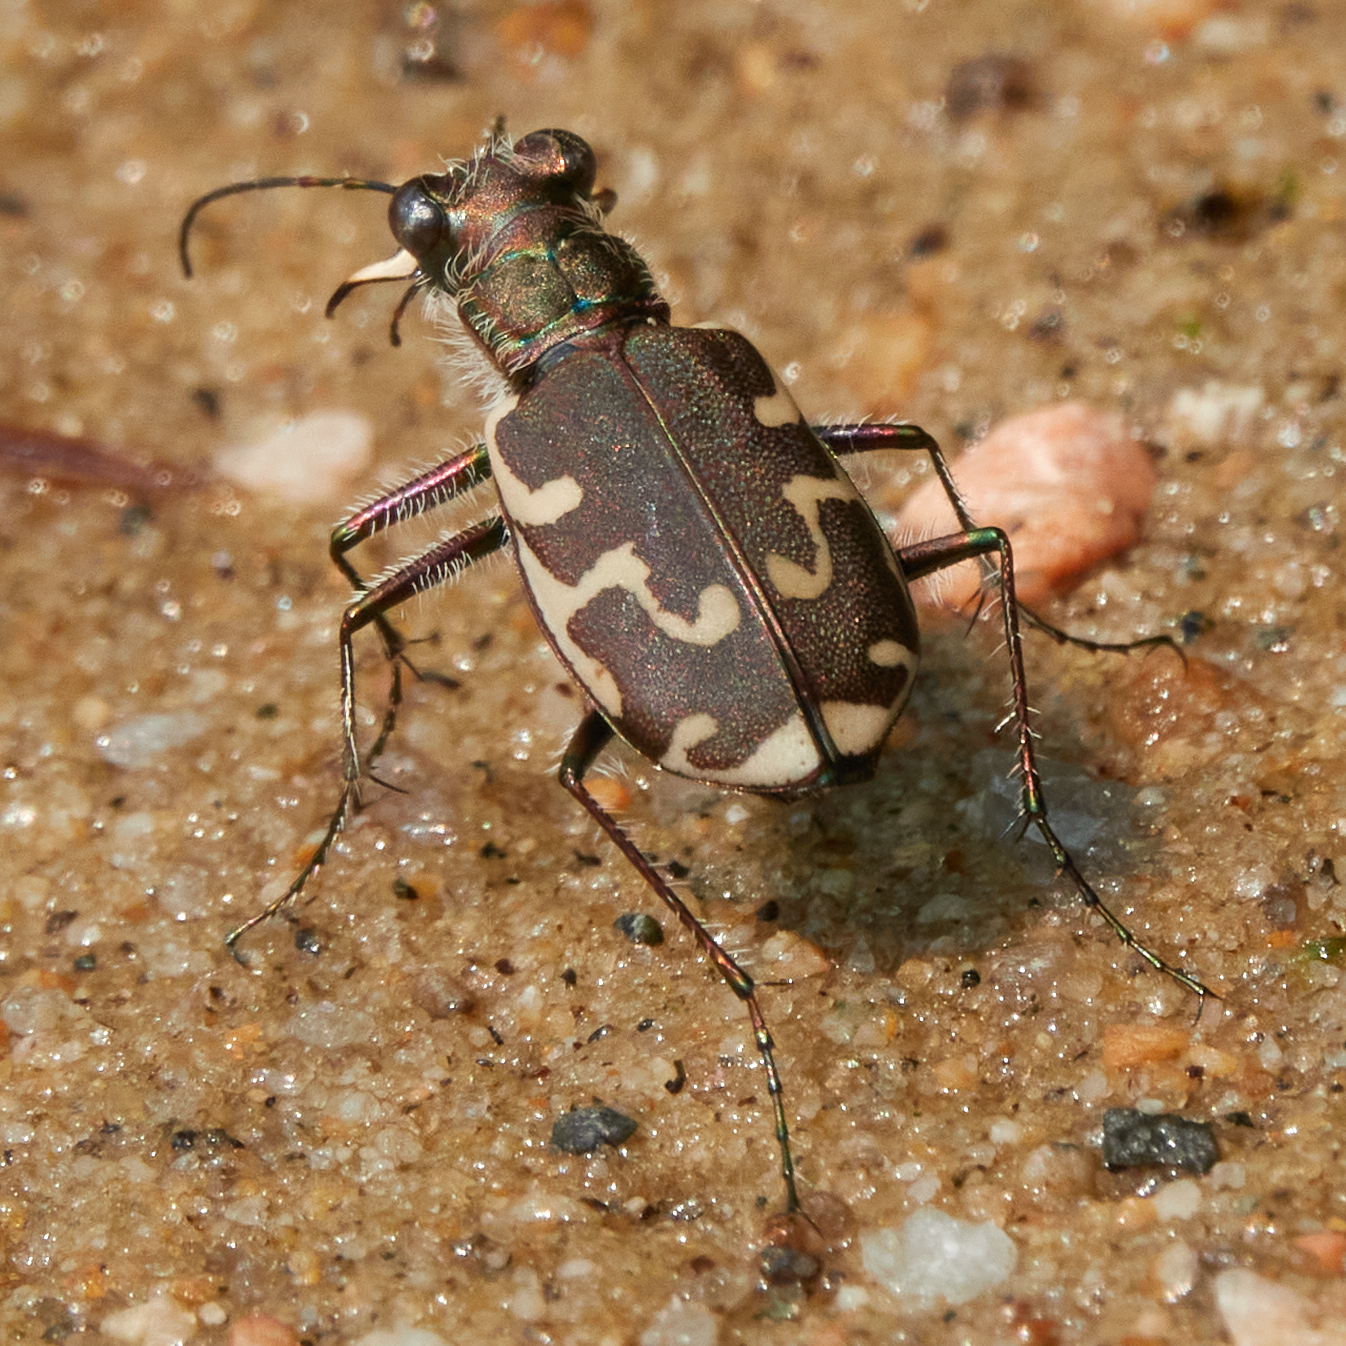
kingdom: Animalia
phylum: Arthropoda
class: Insecta
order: Coleoptera
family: Carabidae
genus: Cicindela
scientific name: Cicindela repanda
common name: Bronzed tiger beetle
